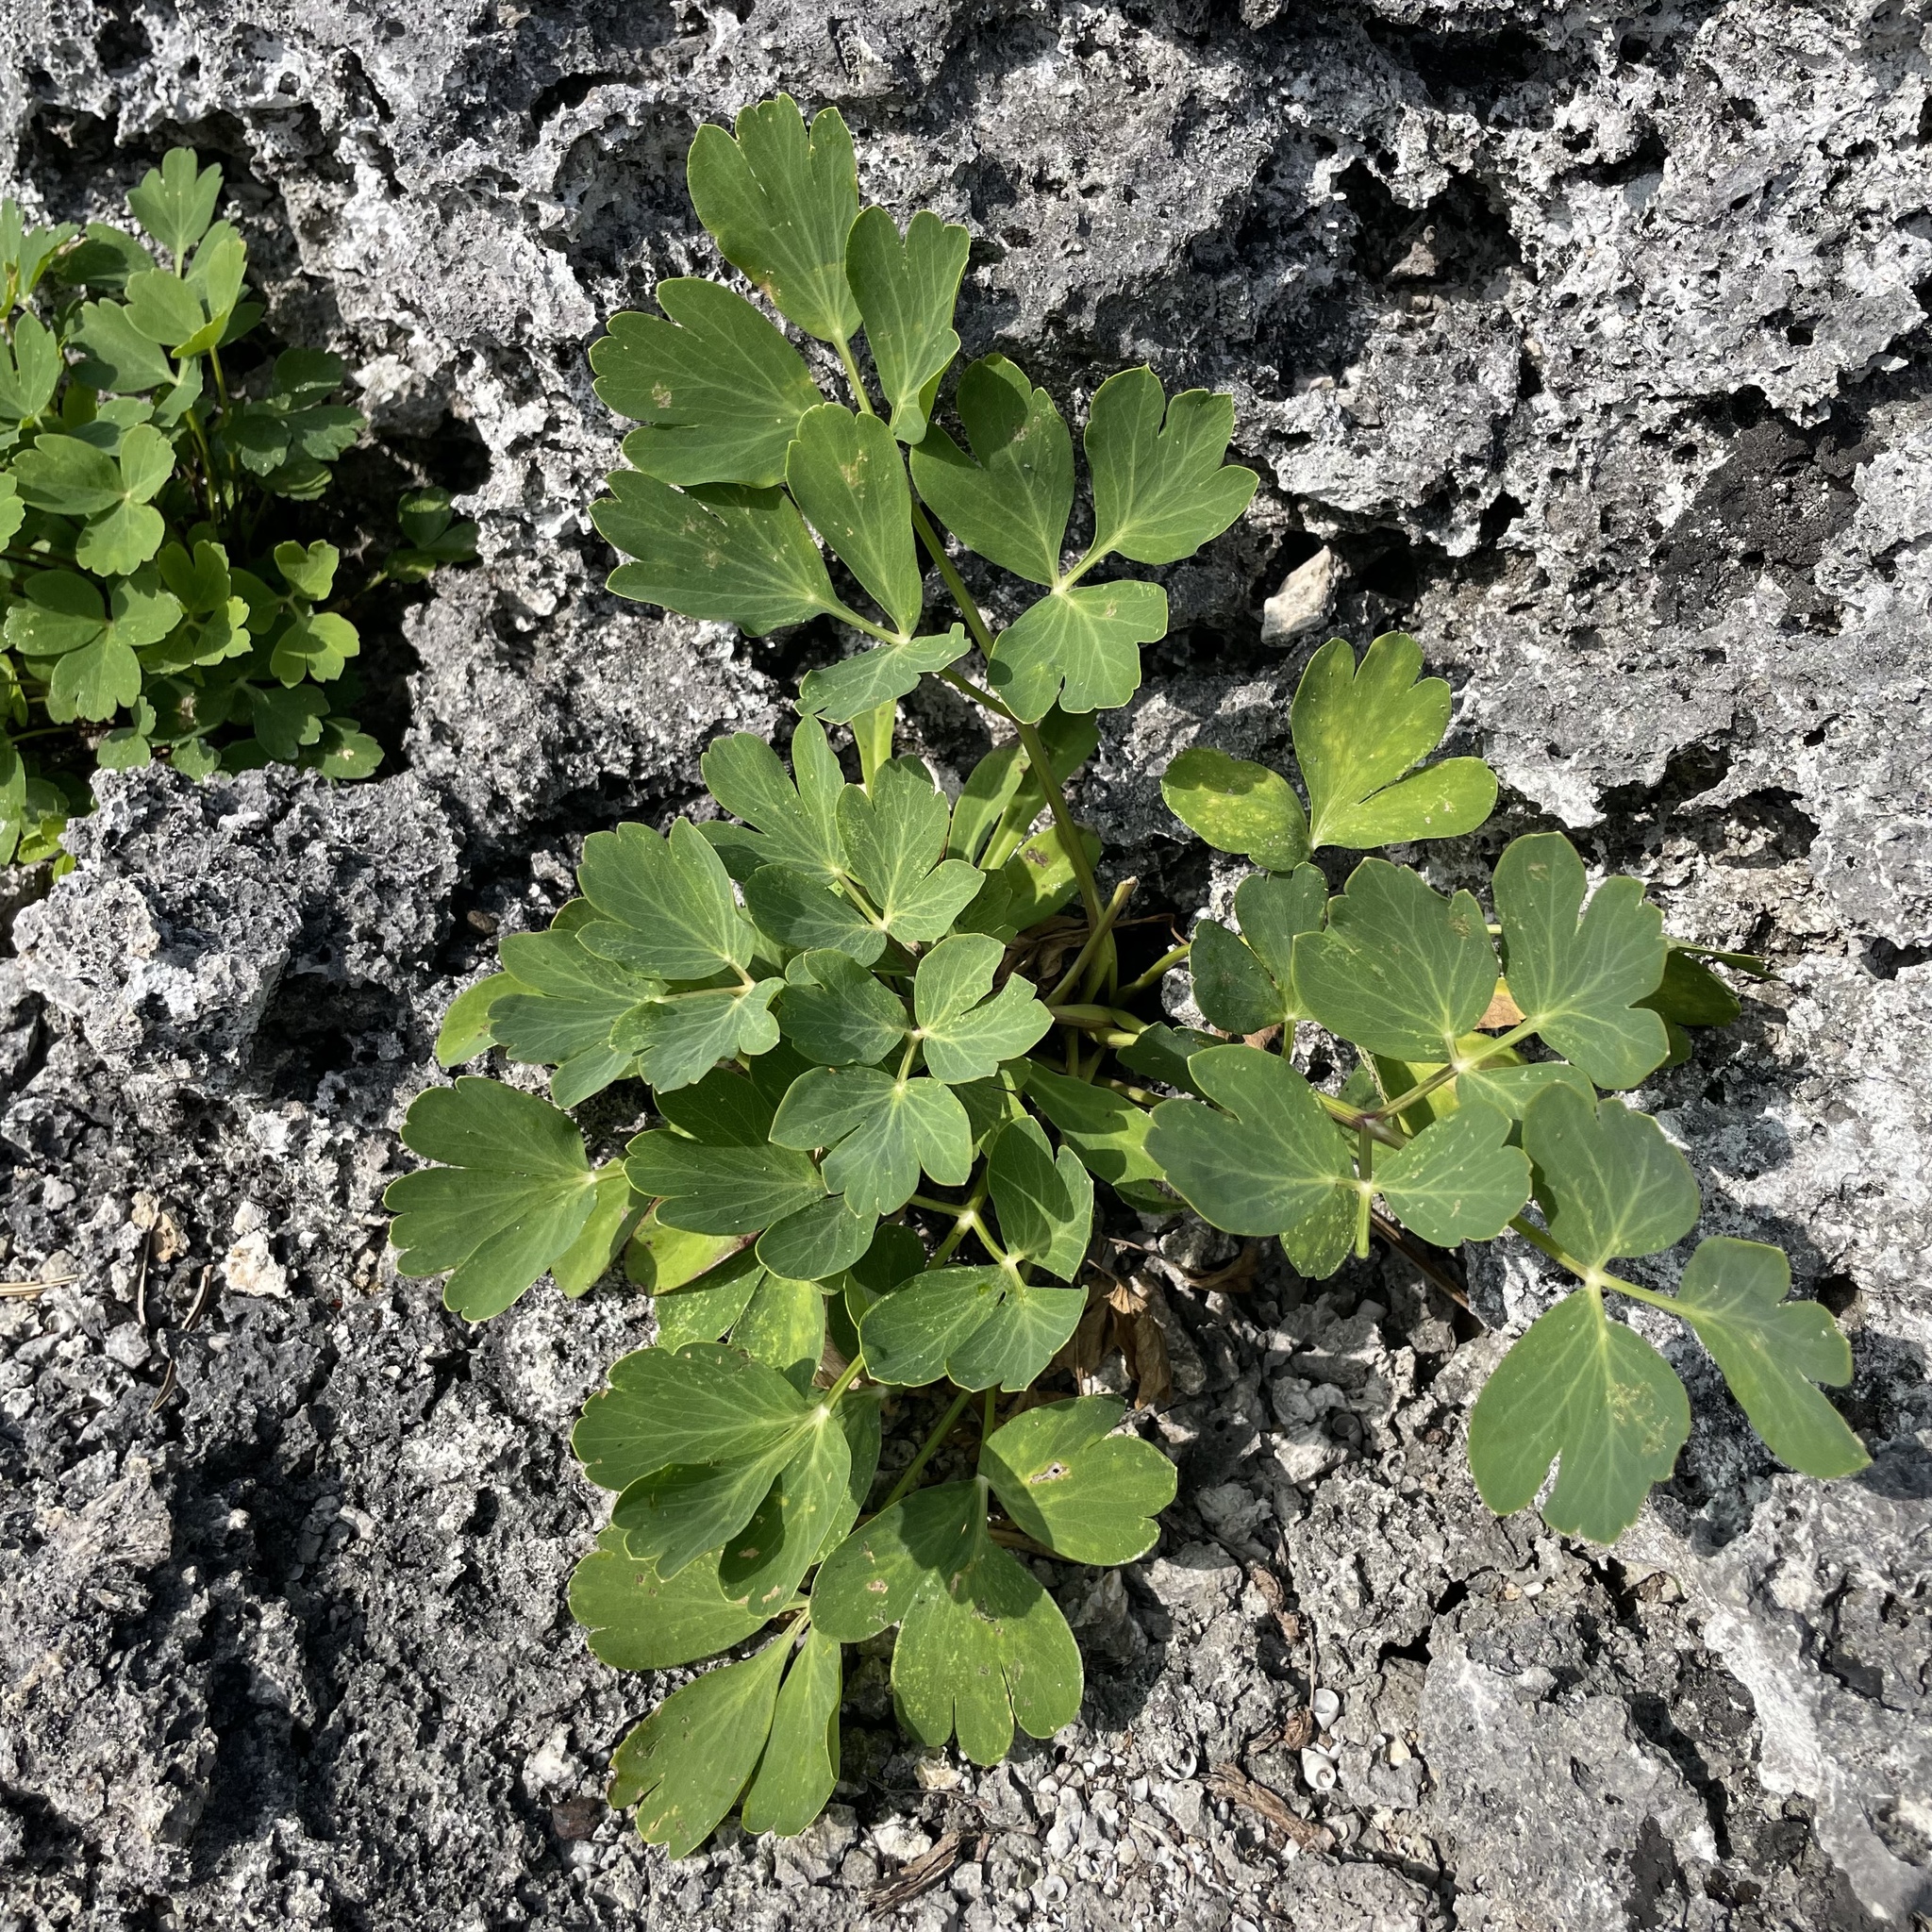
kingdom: Plantae
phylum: Tracheophyta
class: Magnoliopsida
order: Apiales
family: Apiaceae
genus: Peucedanum
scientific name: Peucedanum japonicum
